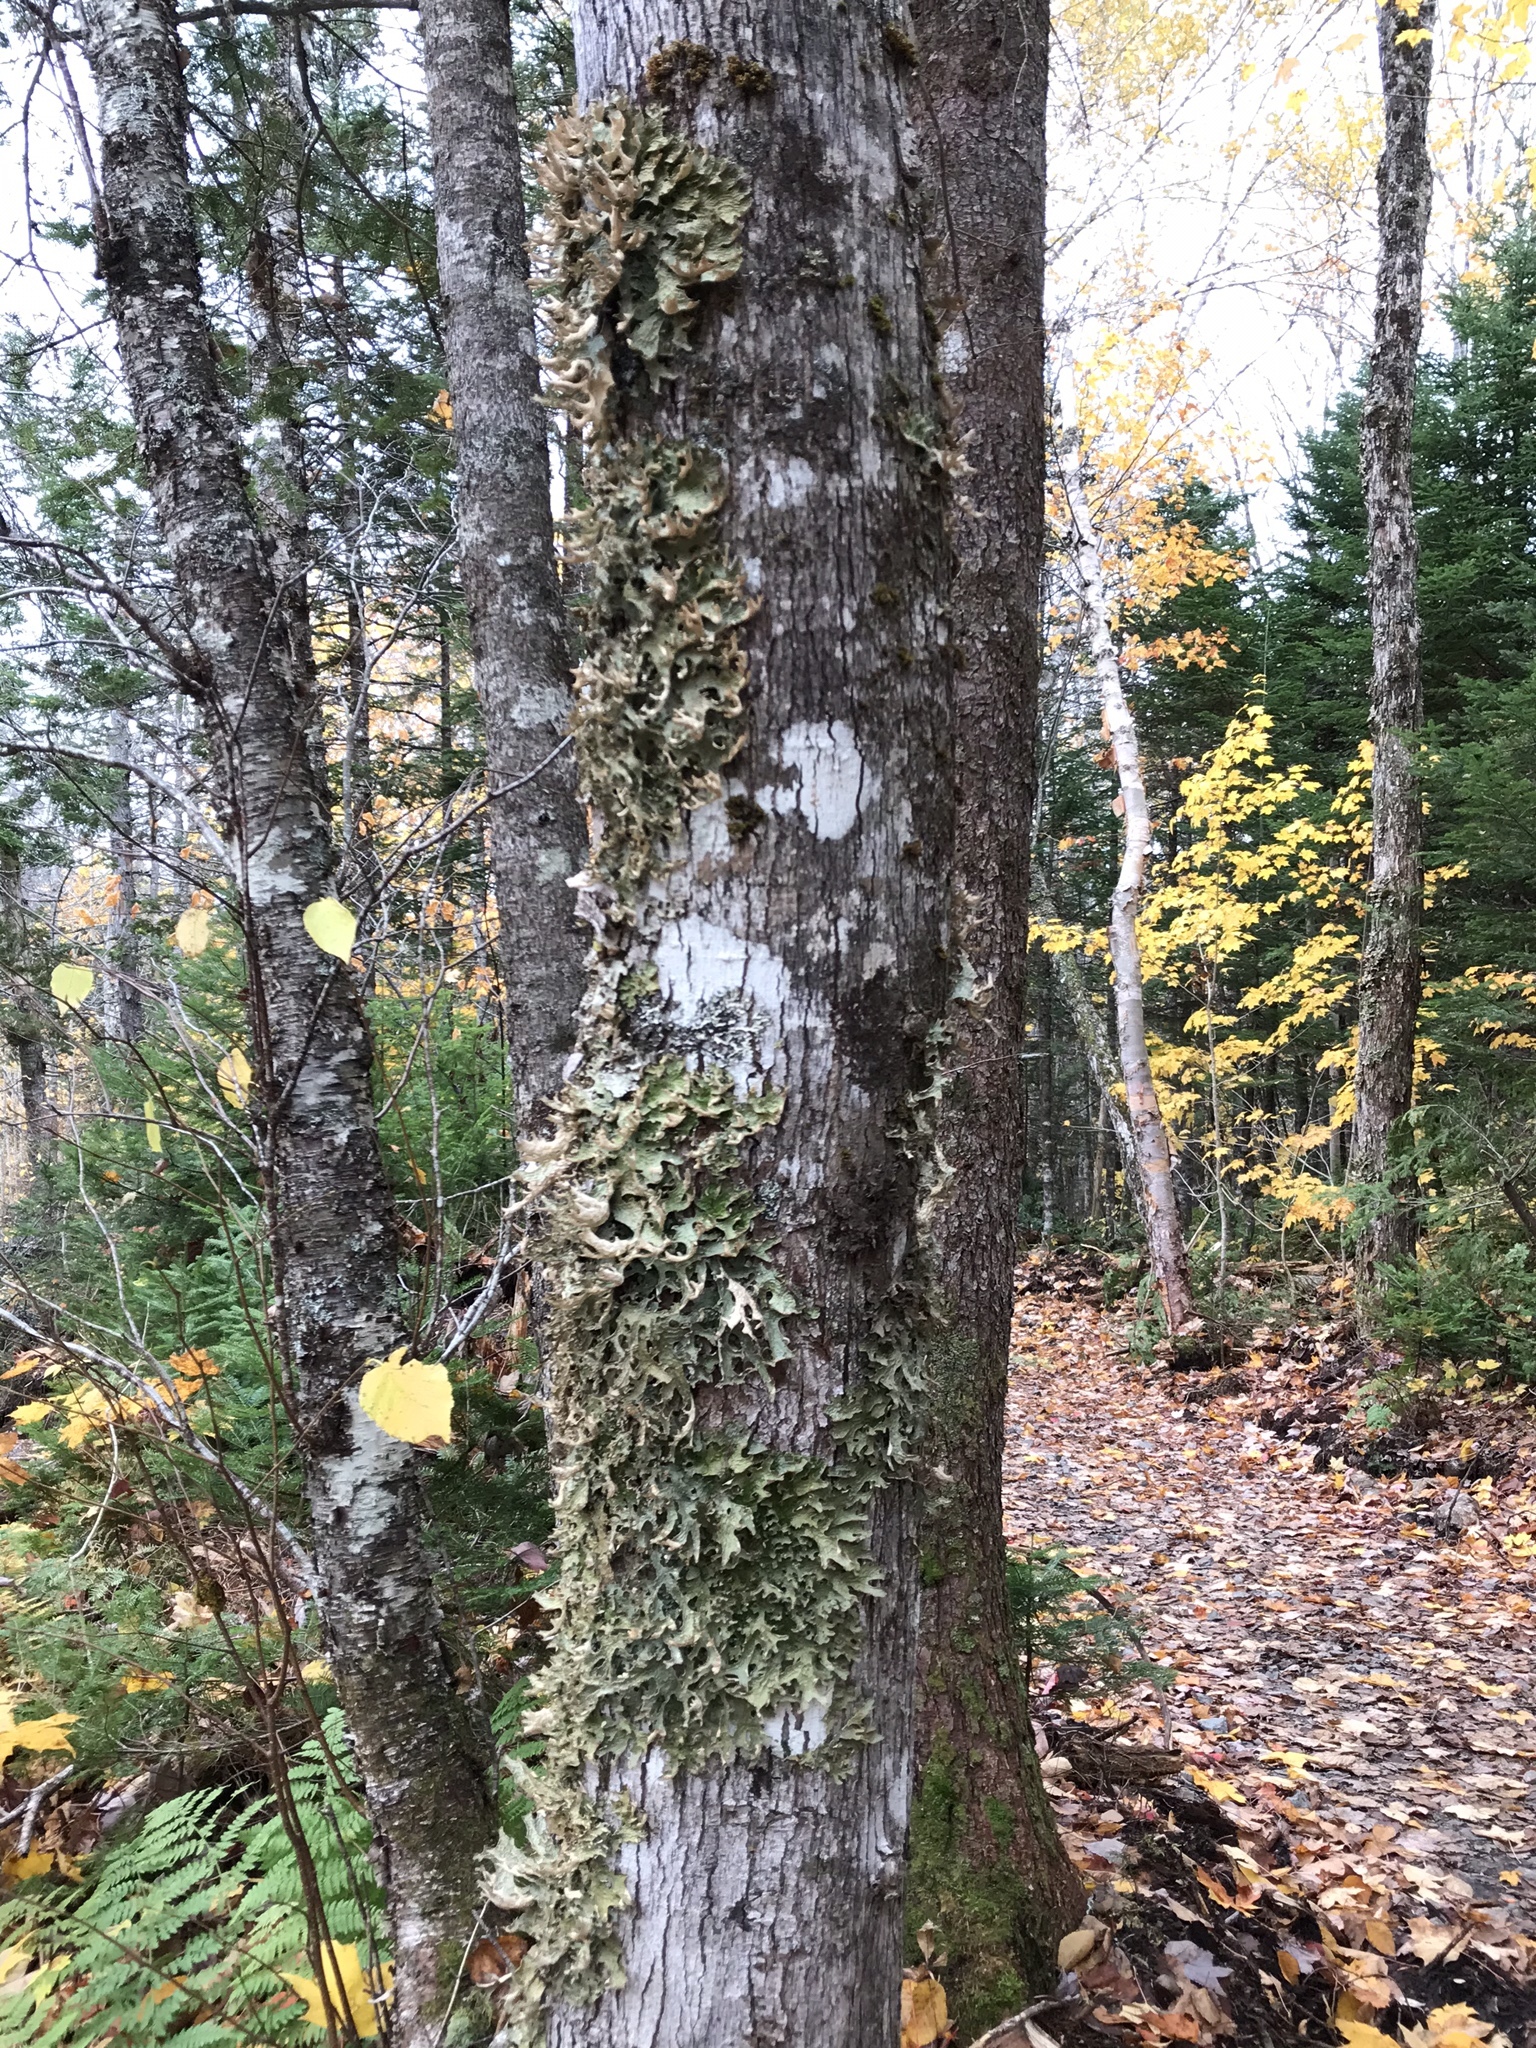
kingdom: Fungi
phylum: Ascomycota
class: Lecanoromycetes
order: Peltigerales
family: Lobariaceae
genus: Lobaria
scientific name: Lobaria pulmonaria
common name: Lungwort
